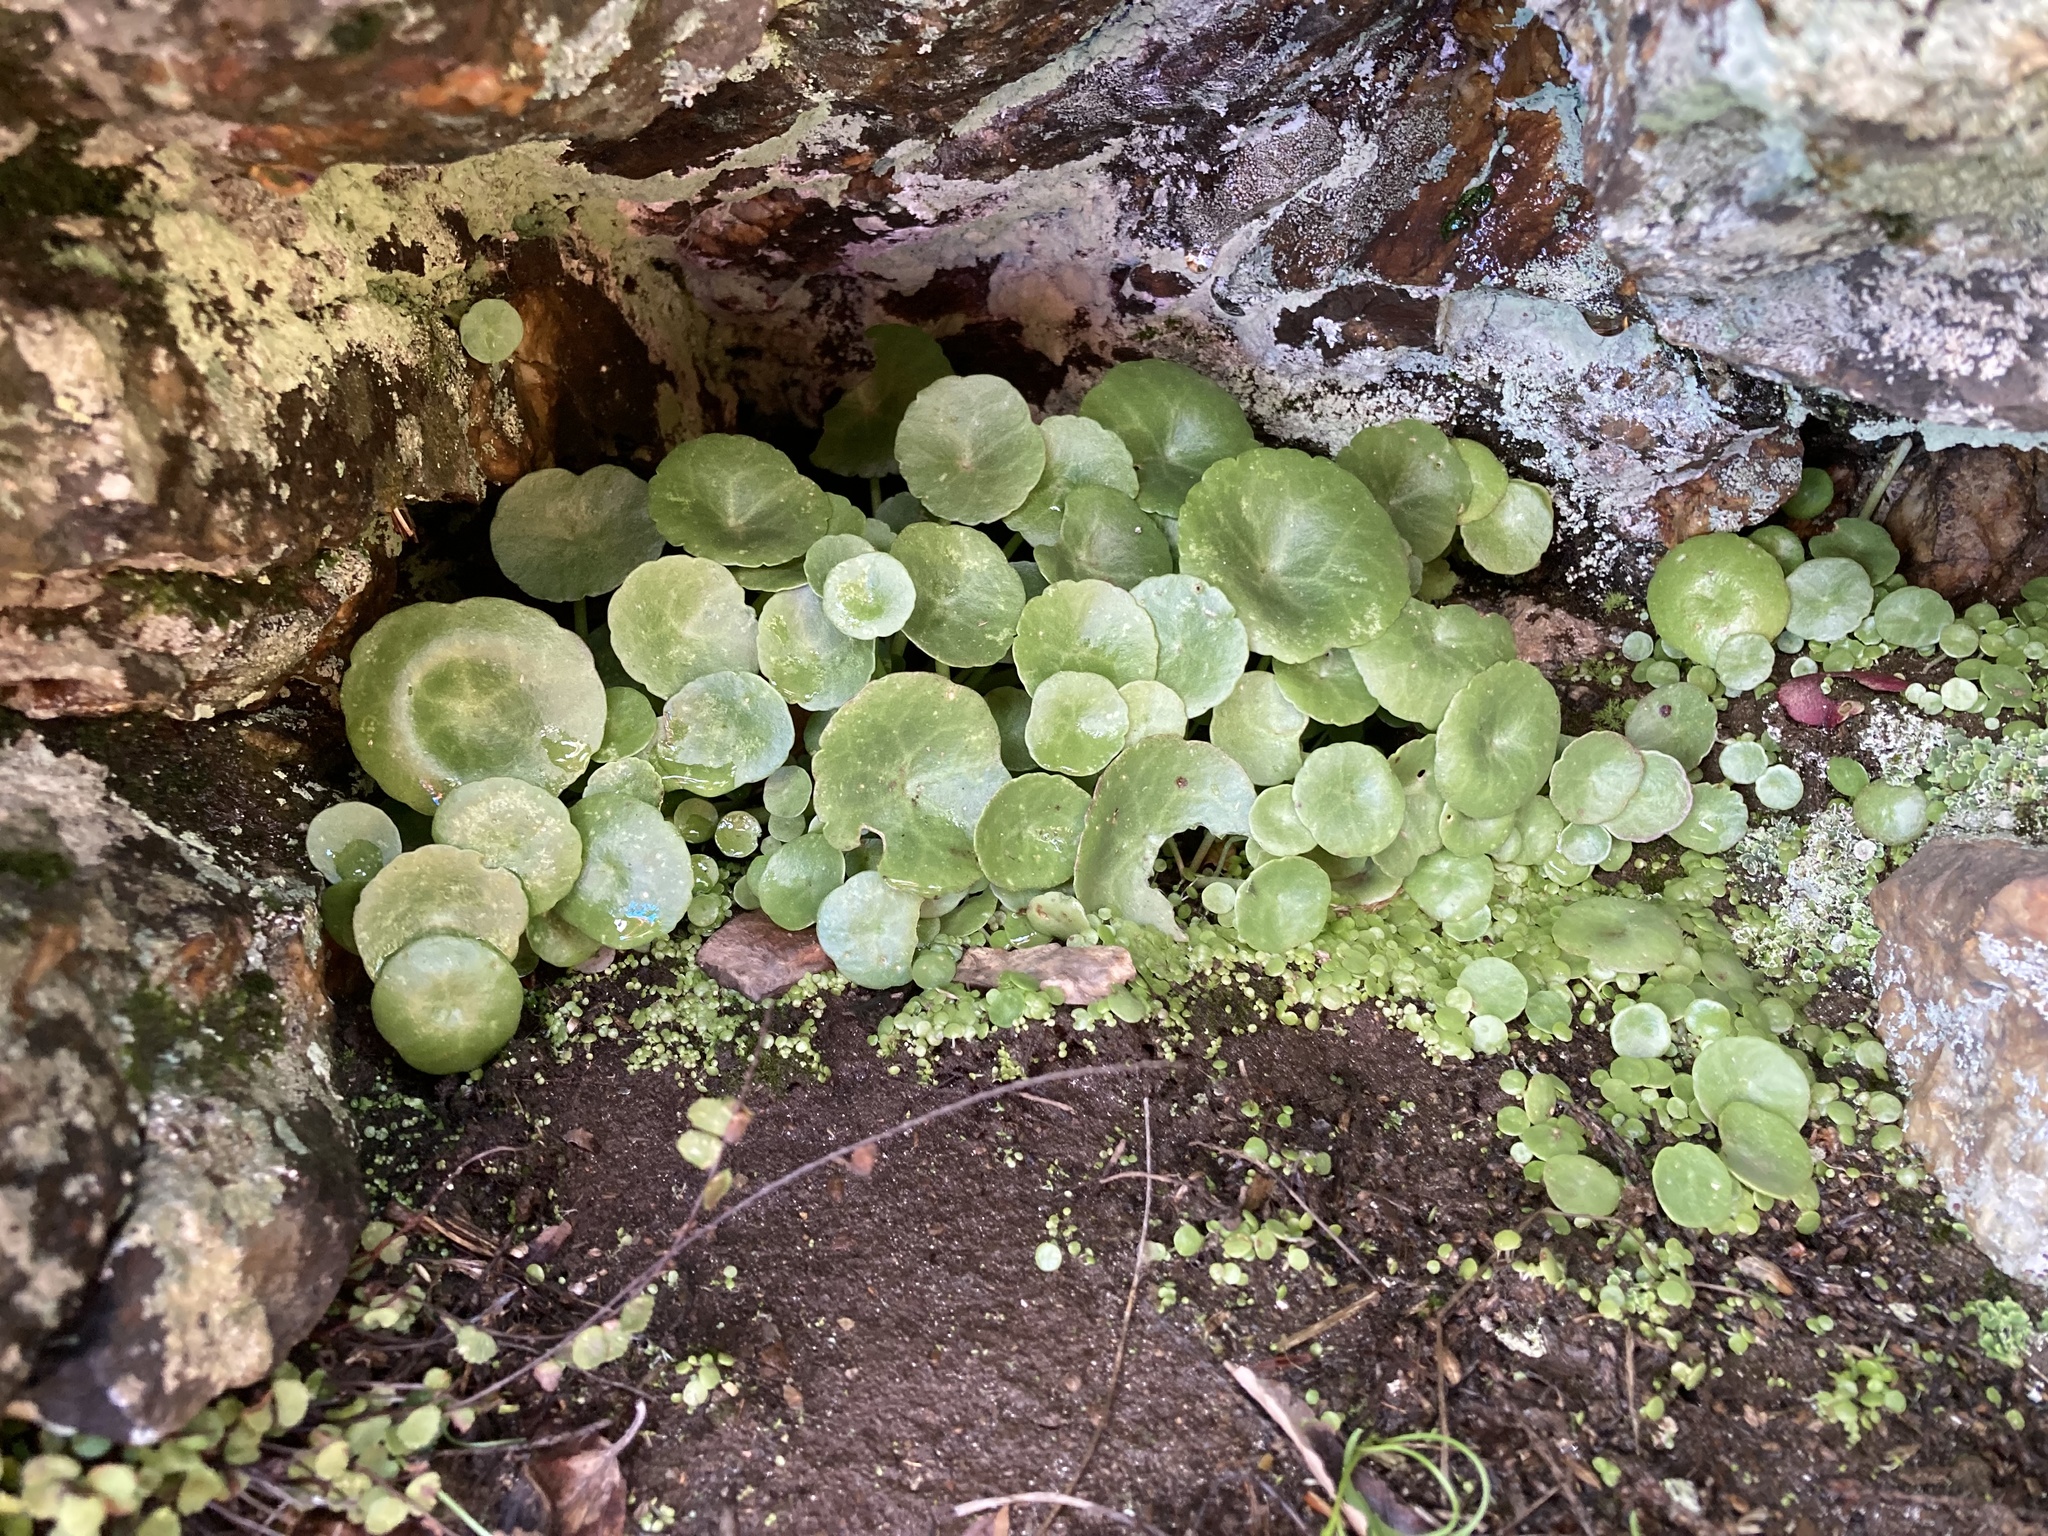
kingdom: Plantae
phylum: Tracheophyta
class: Magnoliopsida
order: Saxifragales
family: Crassulaceae
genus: Umbilicus
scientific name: Umbilicus rupestris
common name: Navelwort
